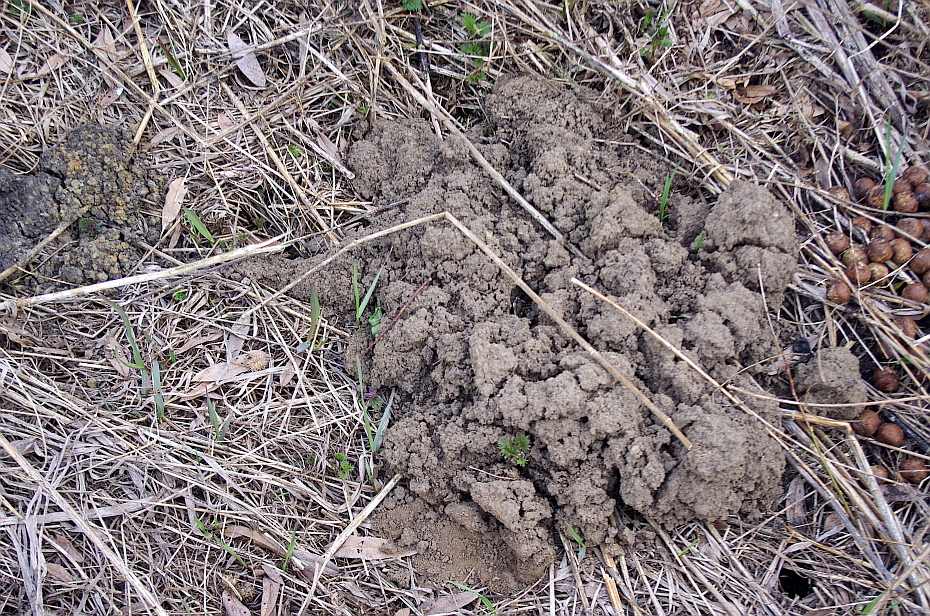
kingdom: Animalia
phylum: Chordata
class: Mammalia
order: Soricomorpha
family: Talpidae
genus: Talpa
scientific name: Talpa europaea
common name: European mole
